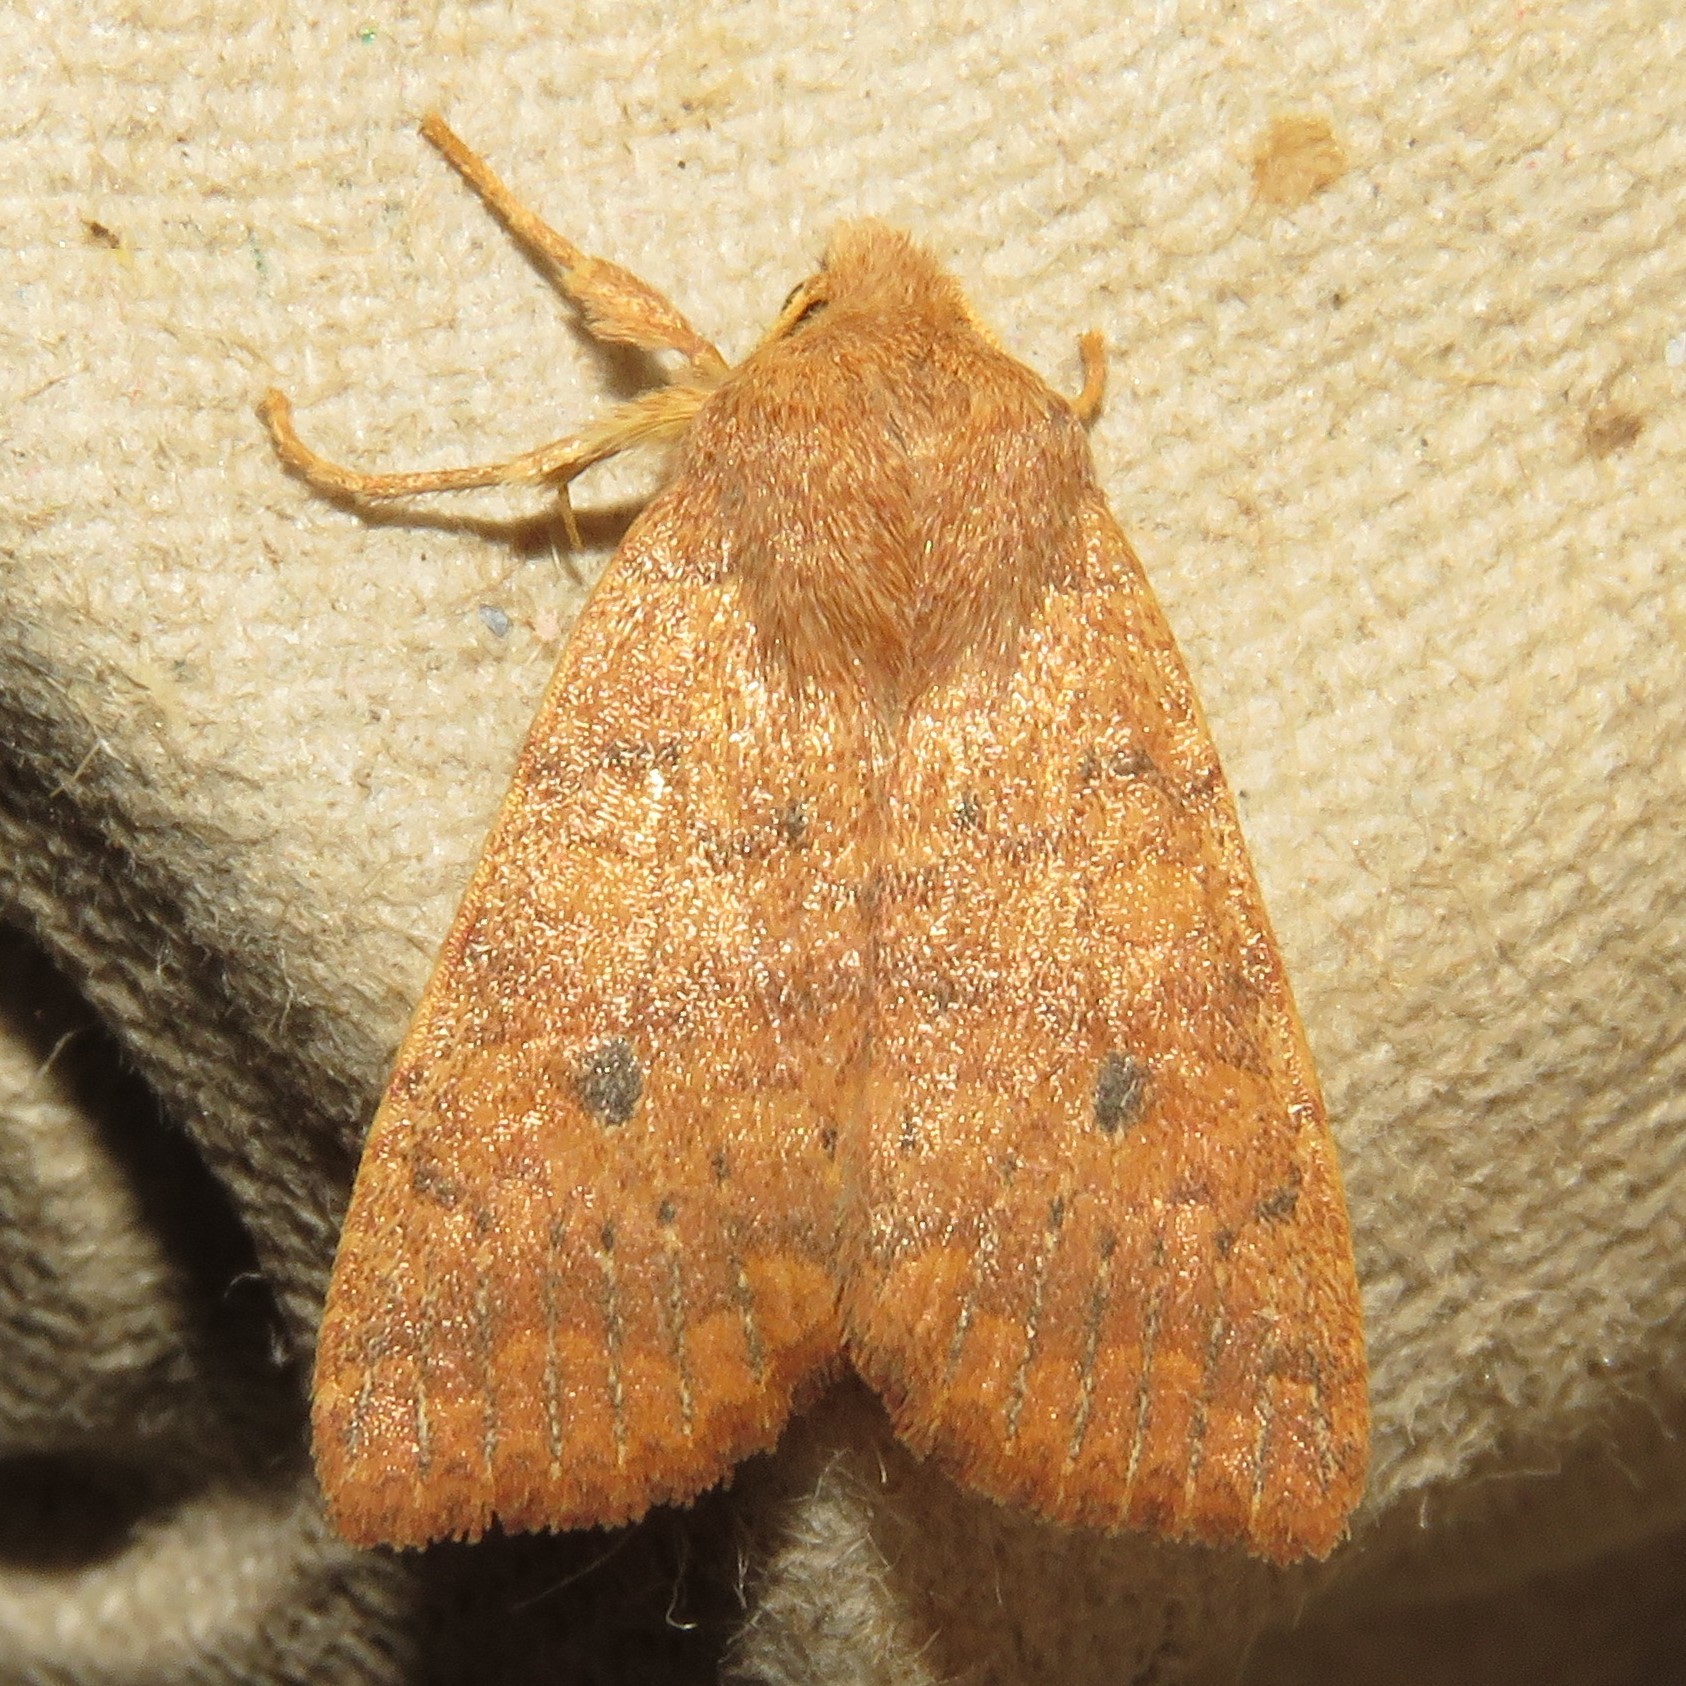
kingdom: Animalia
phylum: Arthropoda
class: Insecta
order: Lepidoptera
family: Noctuidae
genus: Agrochola
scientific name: Agrochola bicolorago
